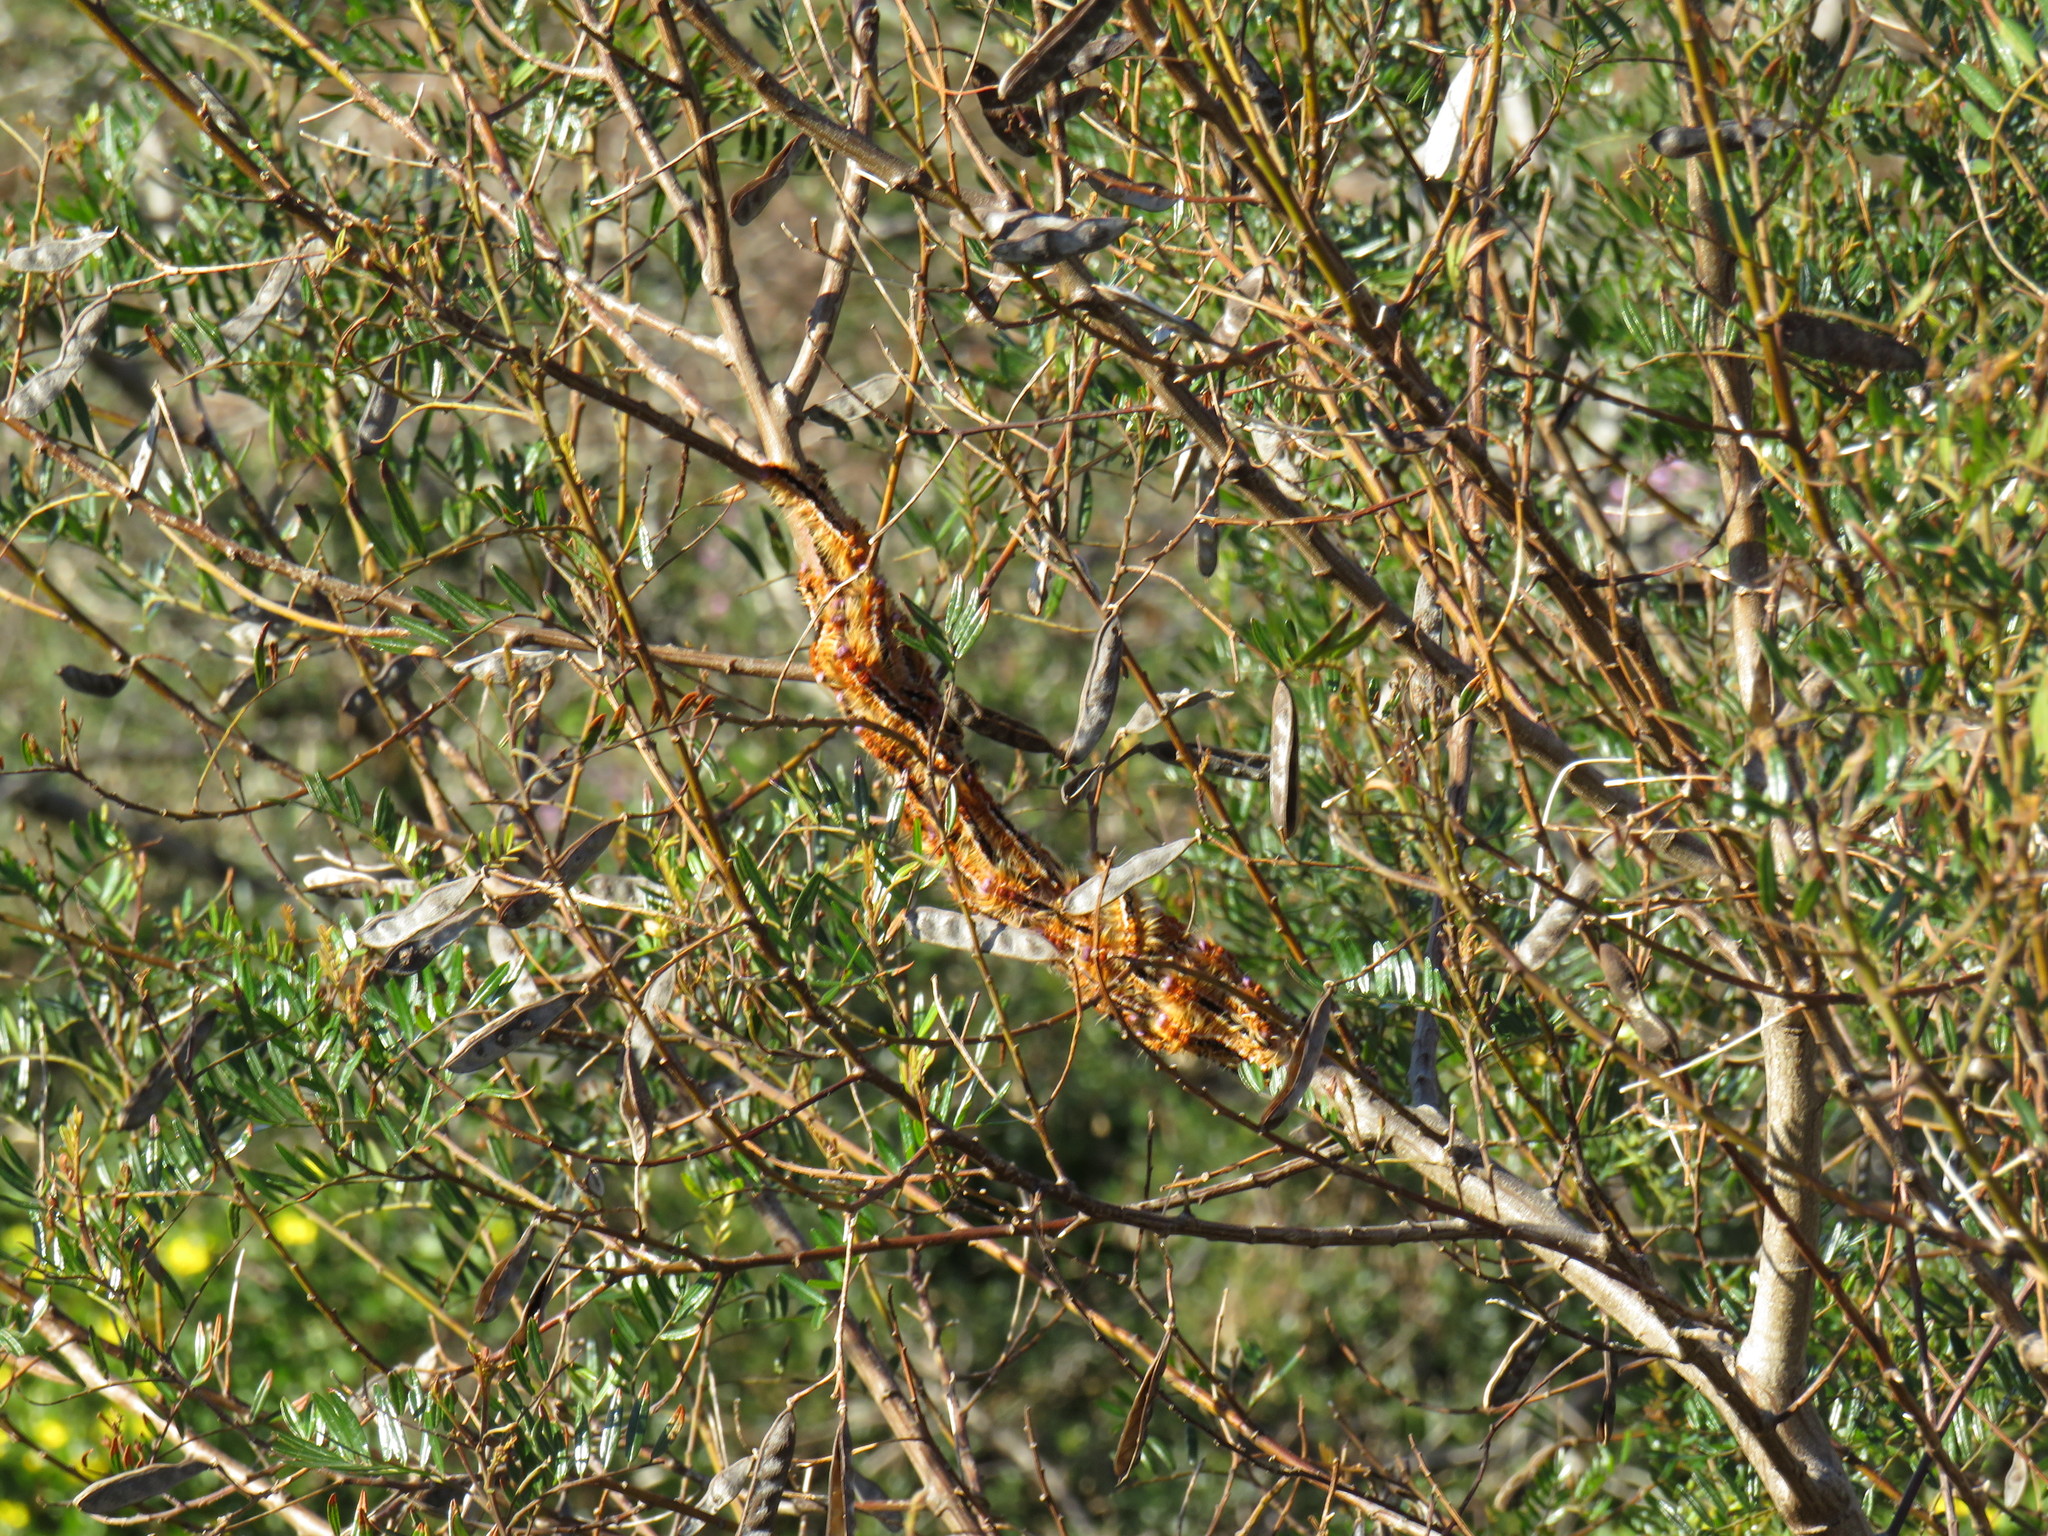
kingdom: Animalia
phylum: Arthropoda
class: Insecta
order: Lepidoptera
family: Lasiocampidae
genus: Eutricha
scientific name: Eutricha capensis
